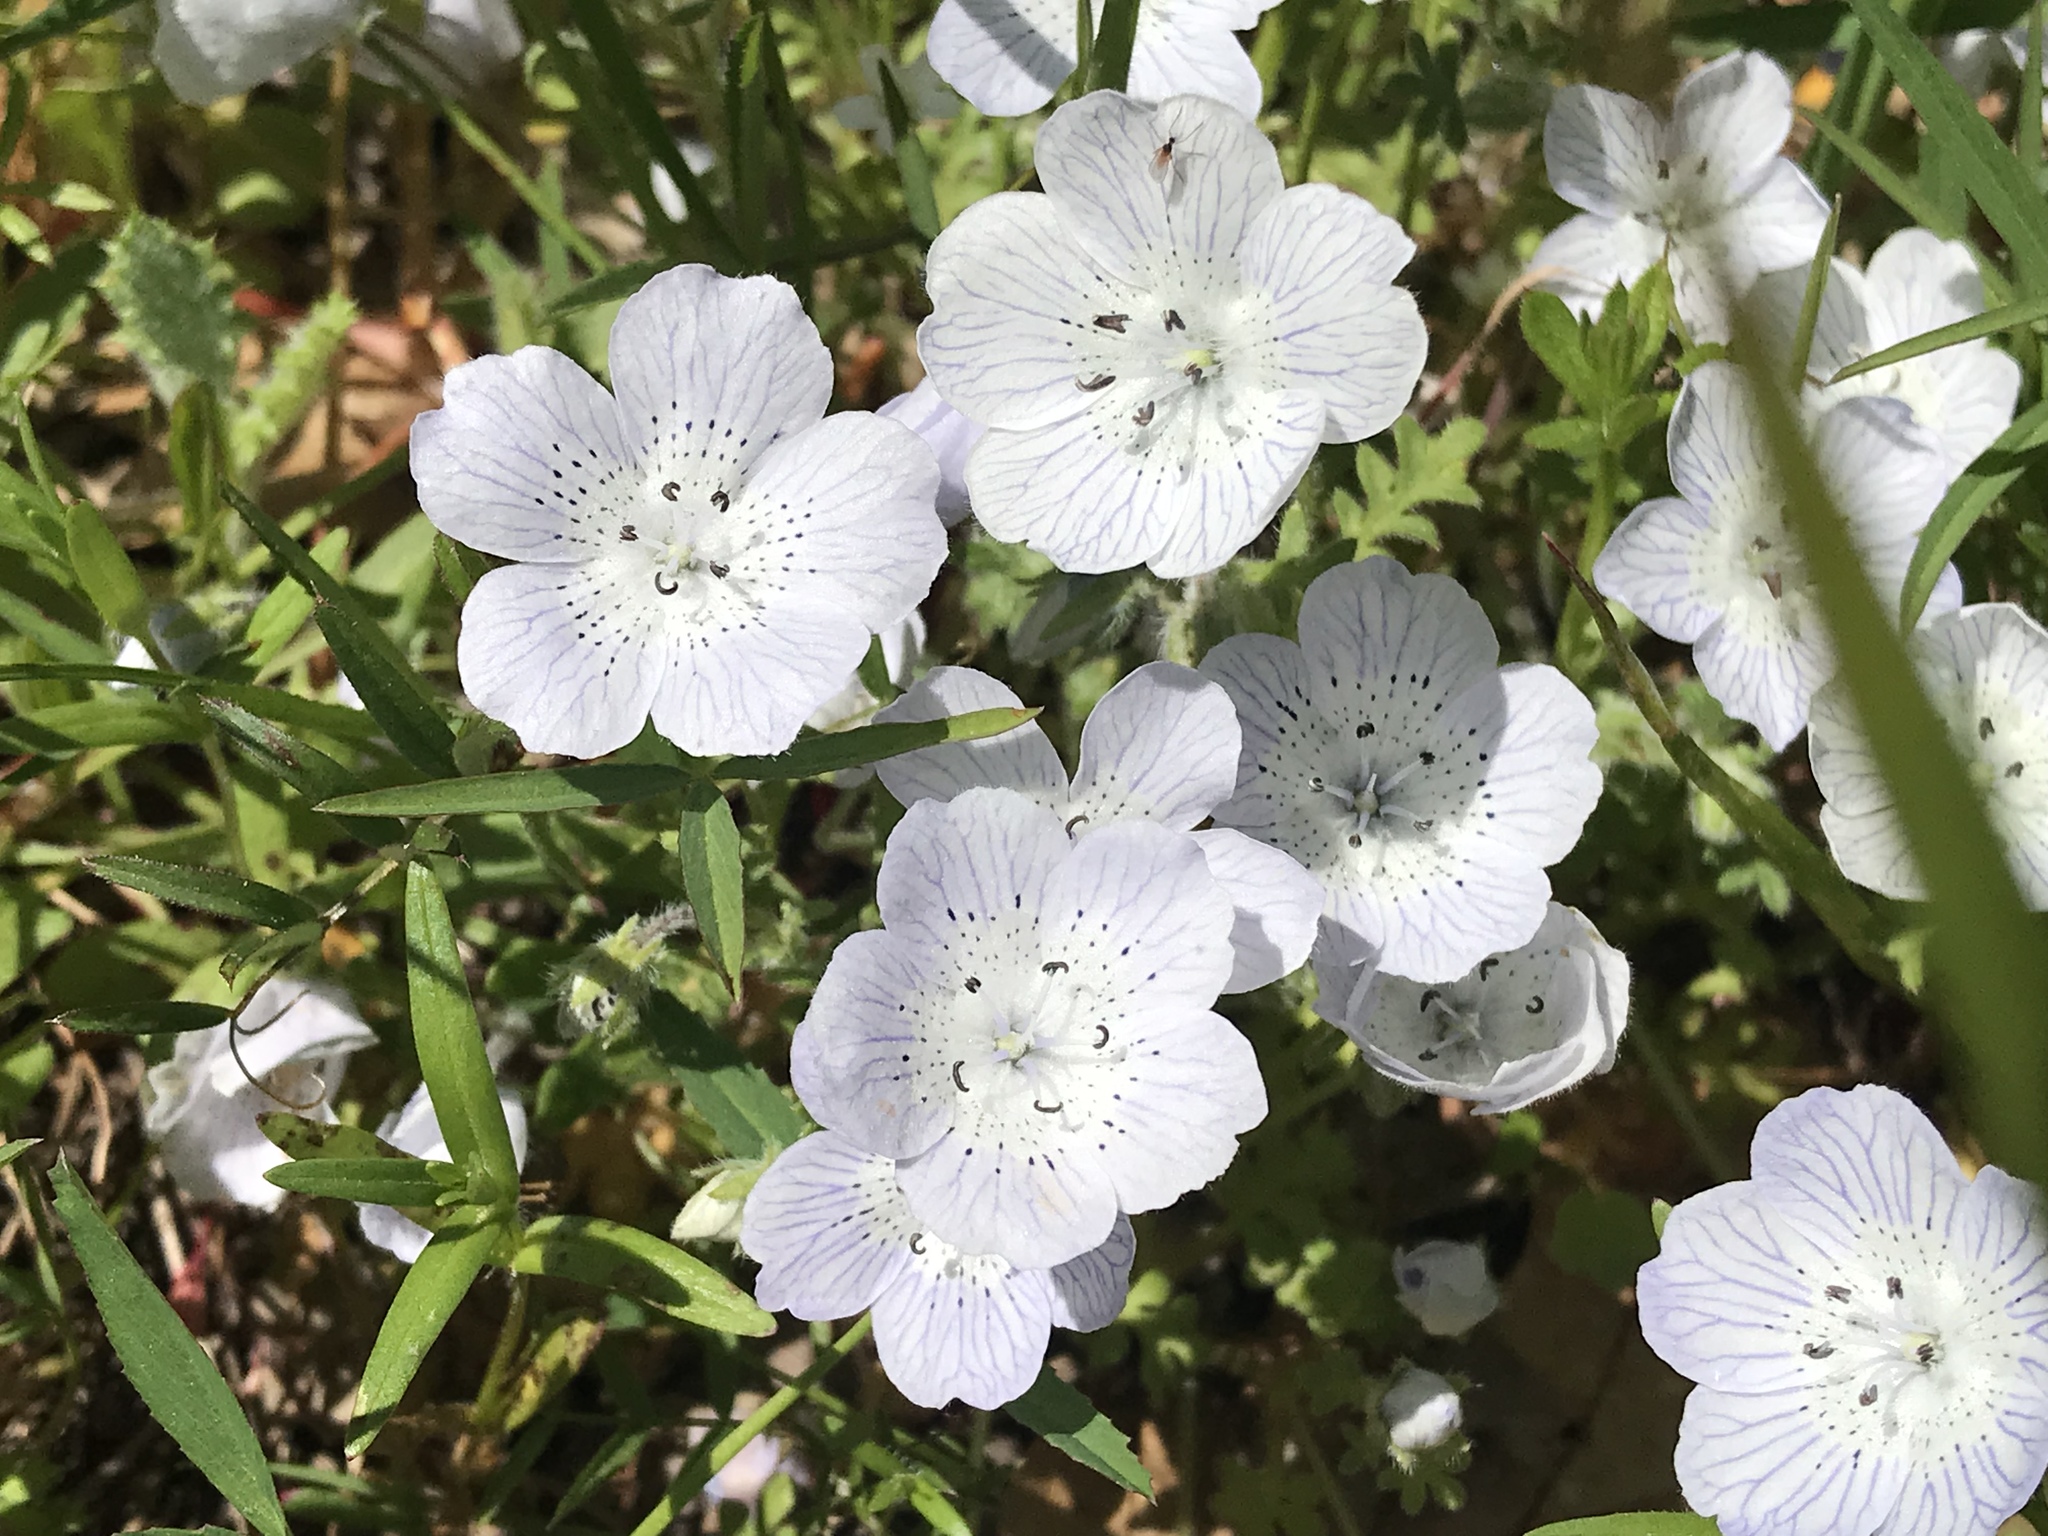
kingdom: Plantae
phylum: Tracheophyta
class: Magnoliopsida
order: Boraginales
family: Hydrophyllaceae
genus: Nemophila
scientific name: Nemophila menziesii
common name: Baby's-blue-eyes
